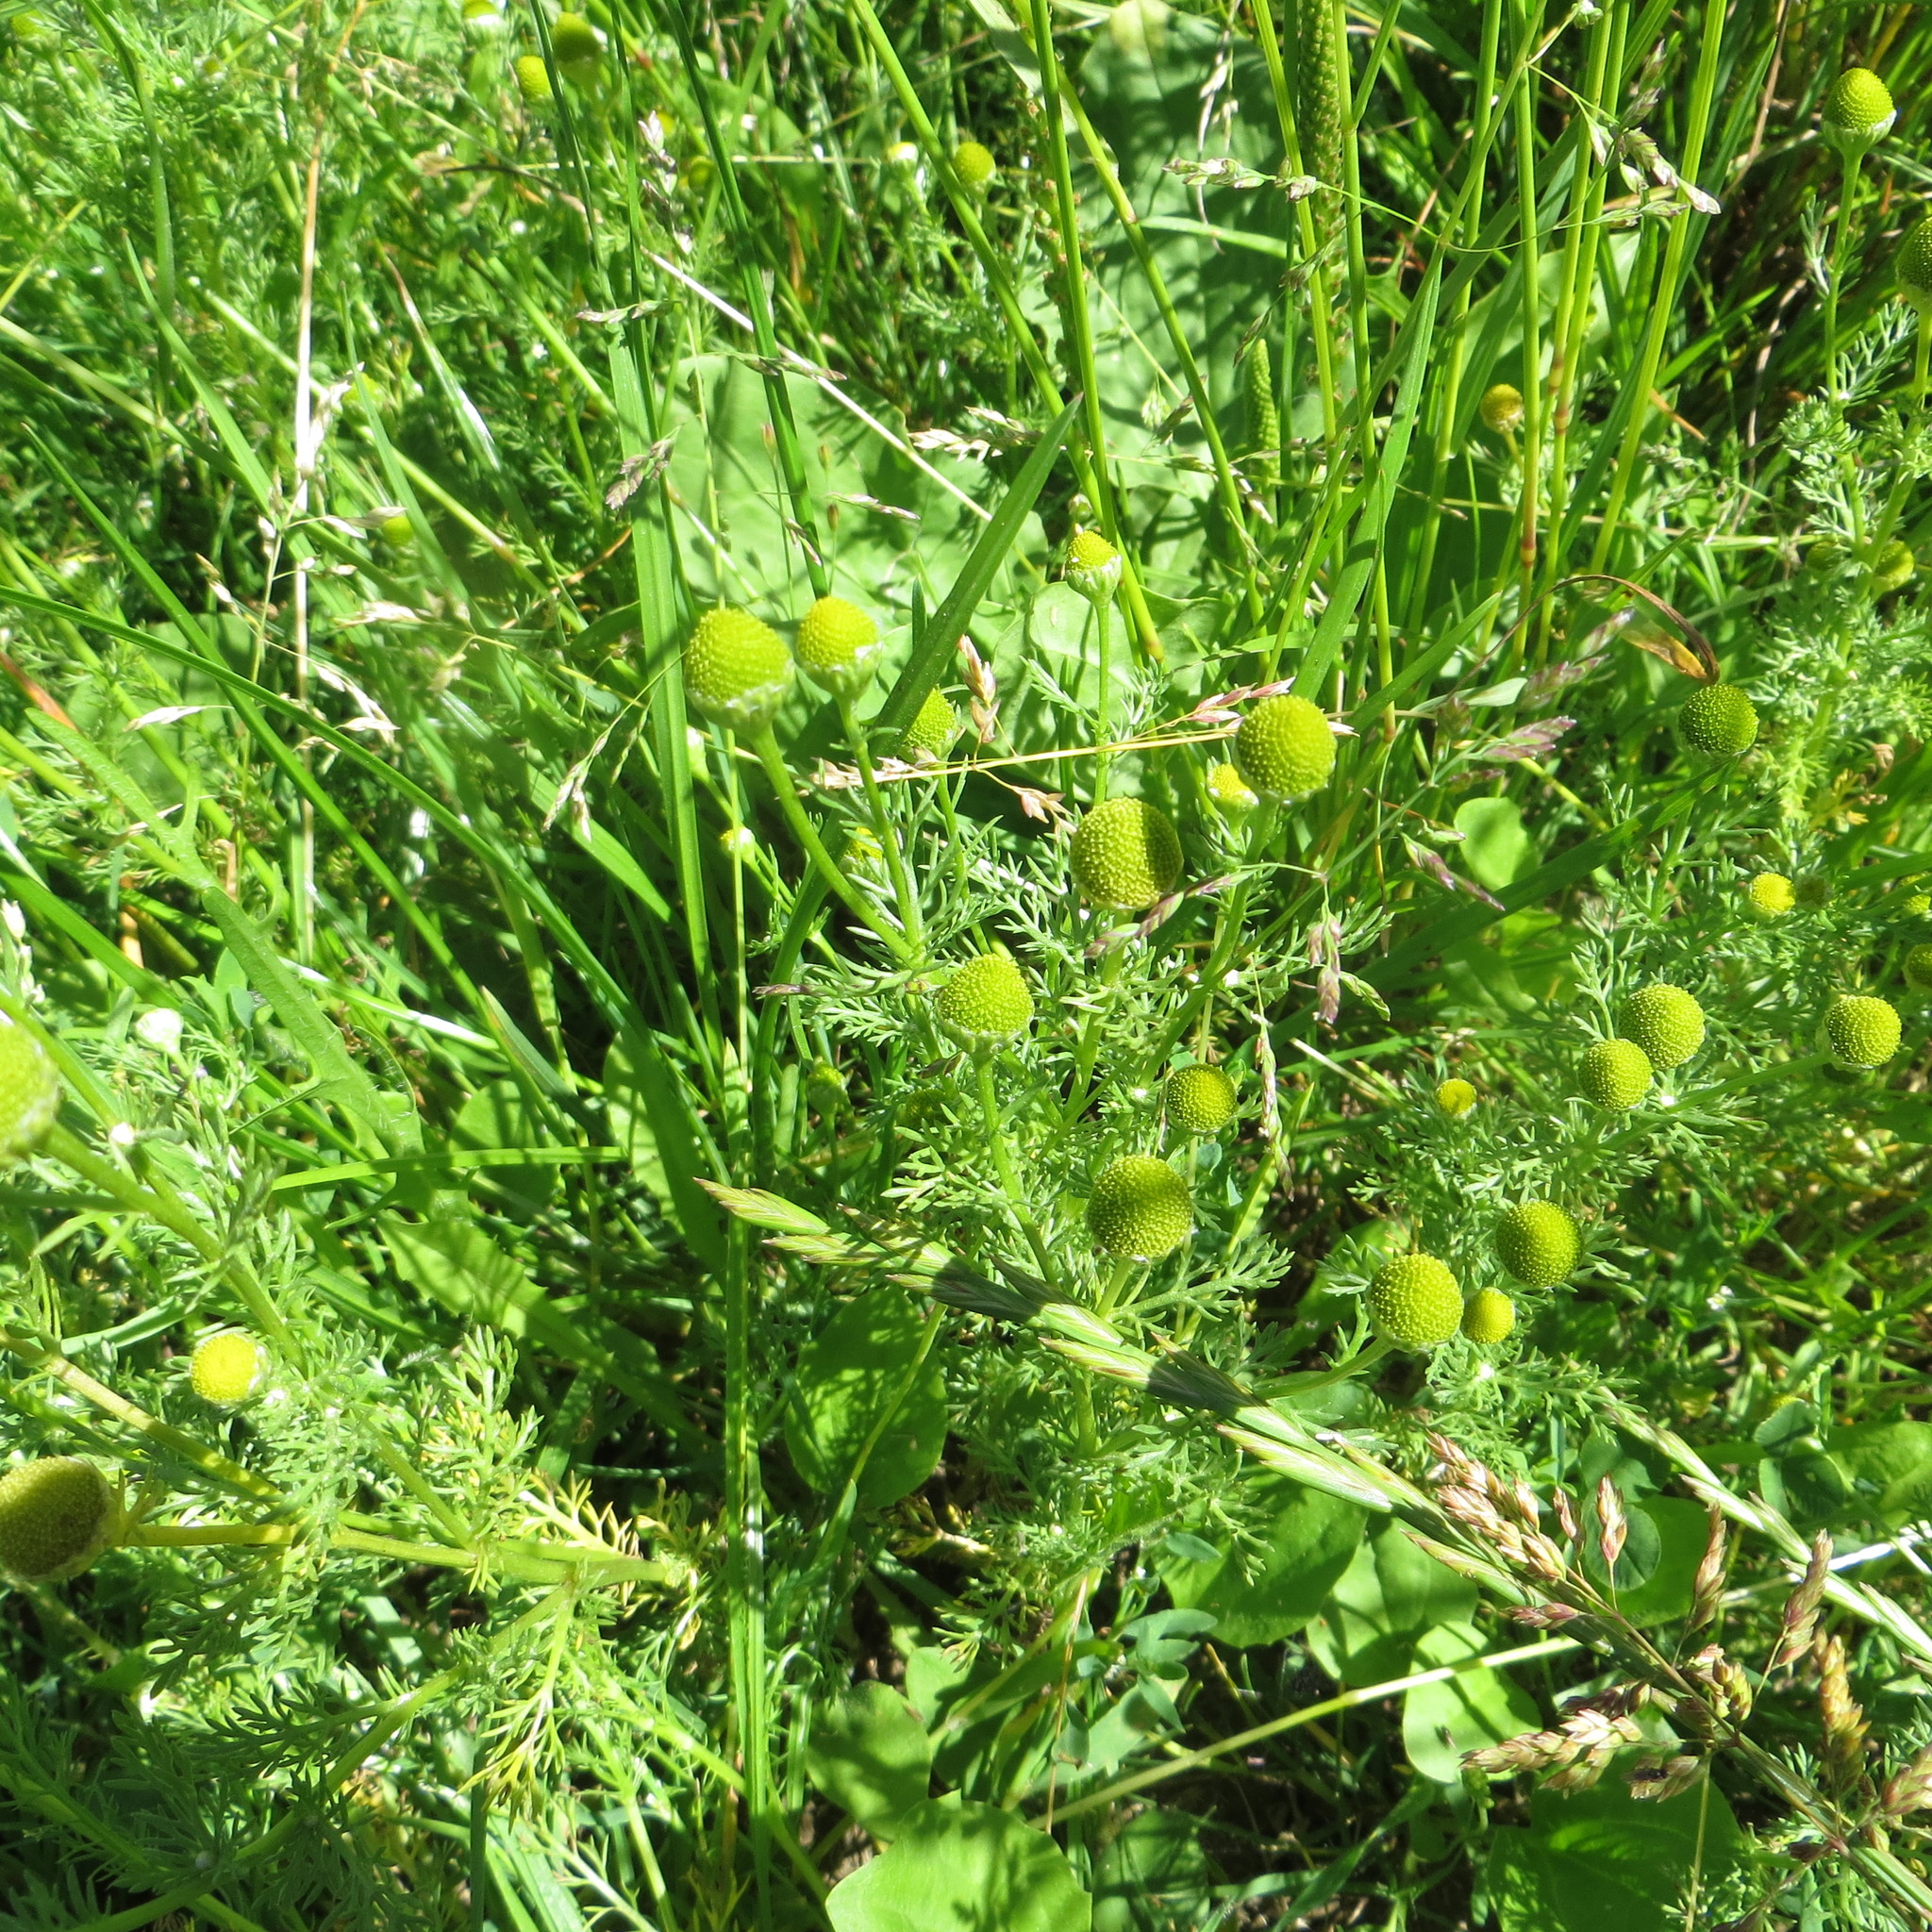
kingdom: Plantae
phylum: Tracheophyta
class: Magnoliopsida
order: Asterales
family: Asteraceae
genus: Matricaria
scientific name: Matricaria discoidea
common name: Disc mayweed
